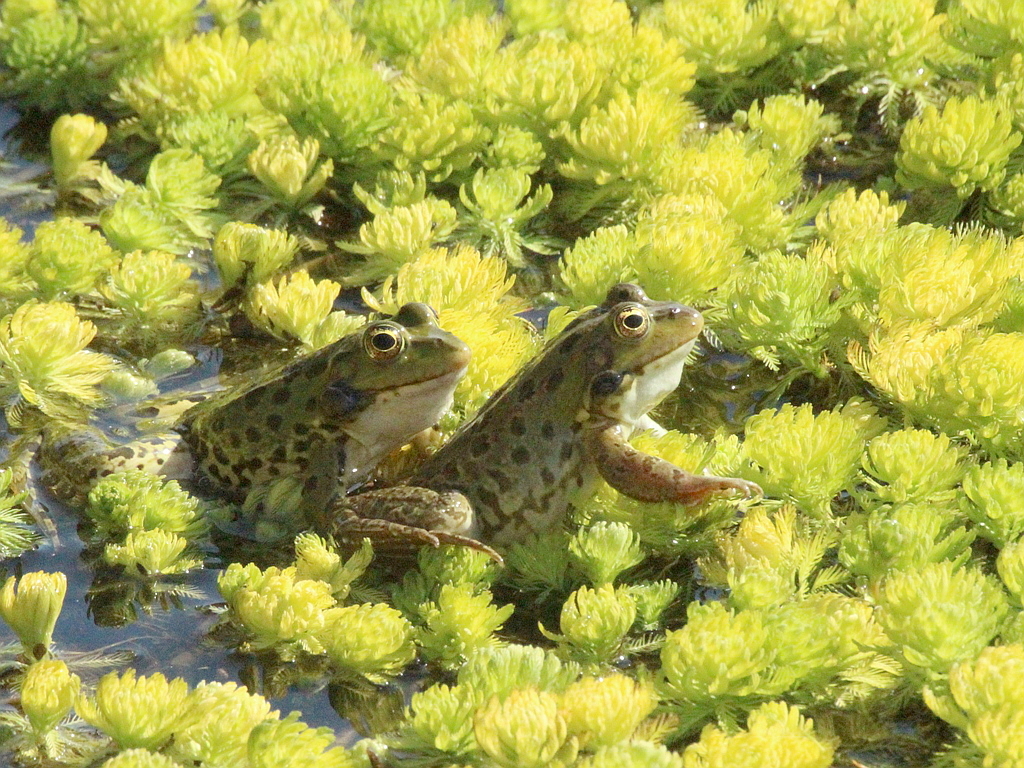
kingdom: Animalia
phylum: Chordata
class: Amphibia
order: Anura
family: Ranidae
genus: Pelophylax
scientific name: Pelophylax ridibundus
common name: Marsh frog
